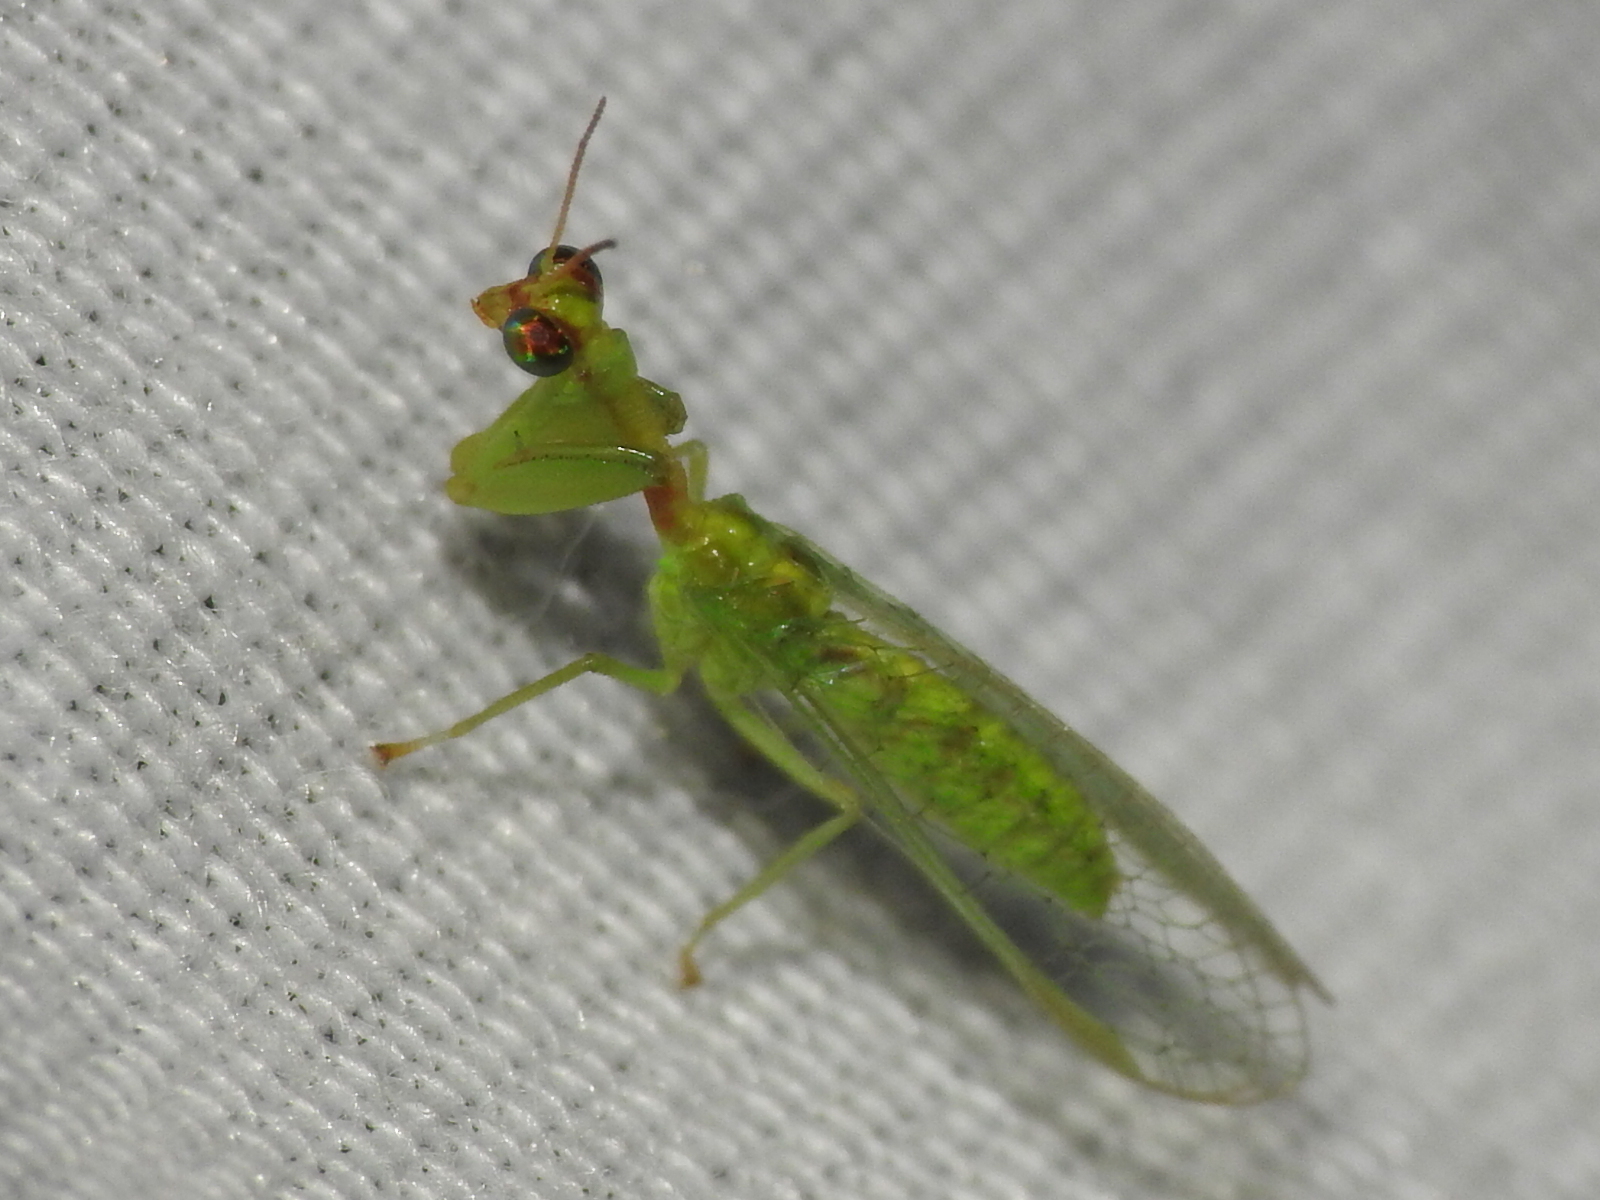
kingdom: Animalia
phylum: Arthropoda
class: Insecta
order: Neuroptera
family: Mantispidae
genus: Zeugomantispa
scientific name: Zeugomantispa minuta
